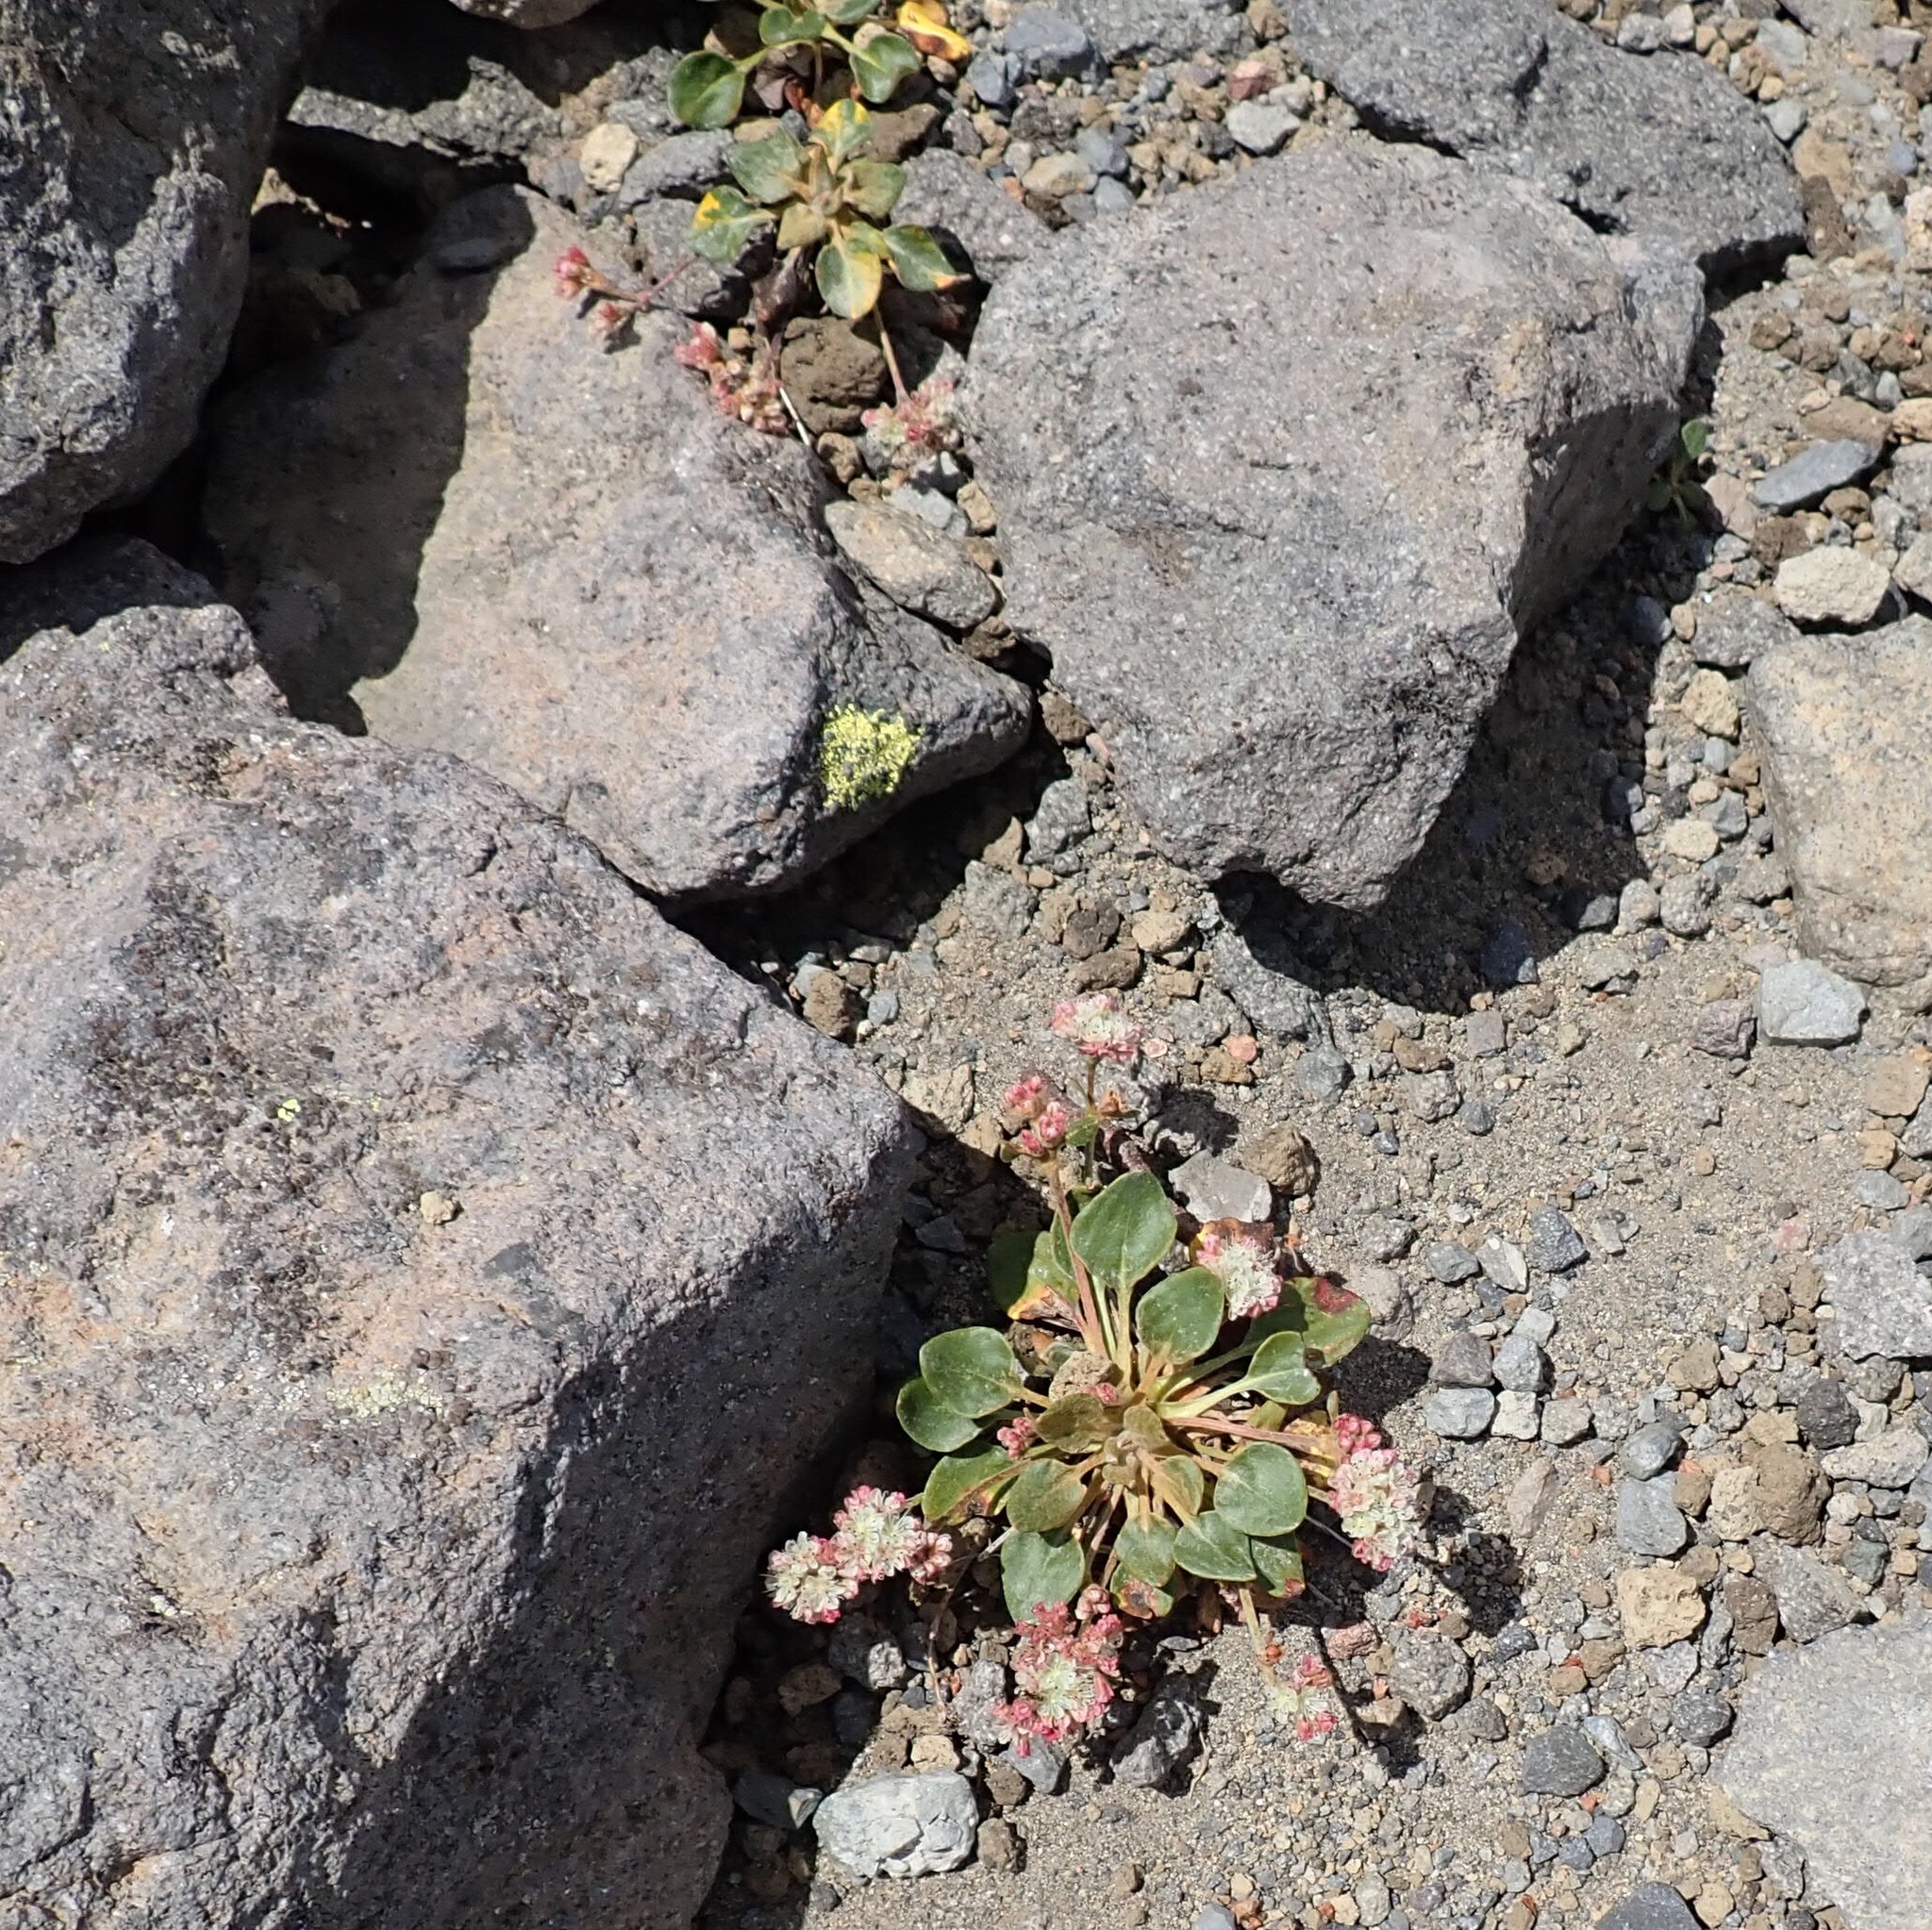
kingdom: Plantae
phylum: Tracheophyta
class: Magnoliopsida
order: Caryophyllales
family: Polygonaceae
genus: Eriogonum
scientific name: Eriogonum pyrolifolium
